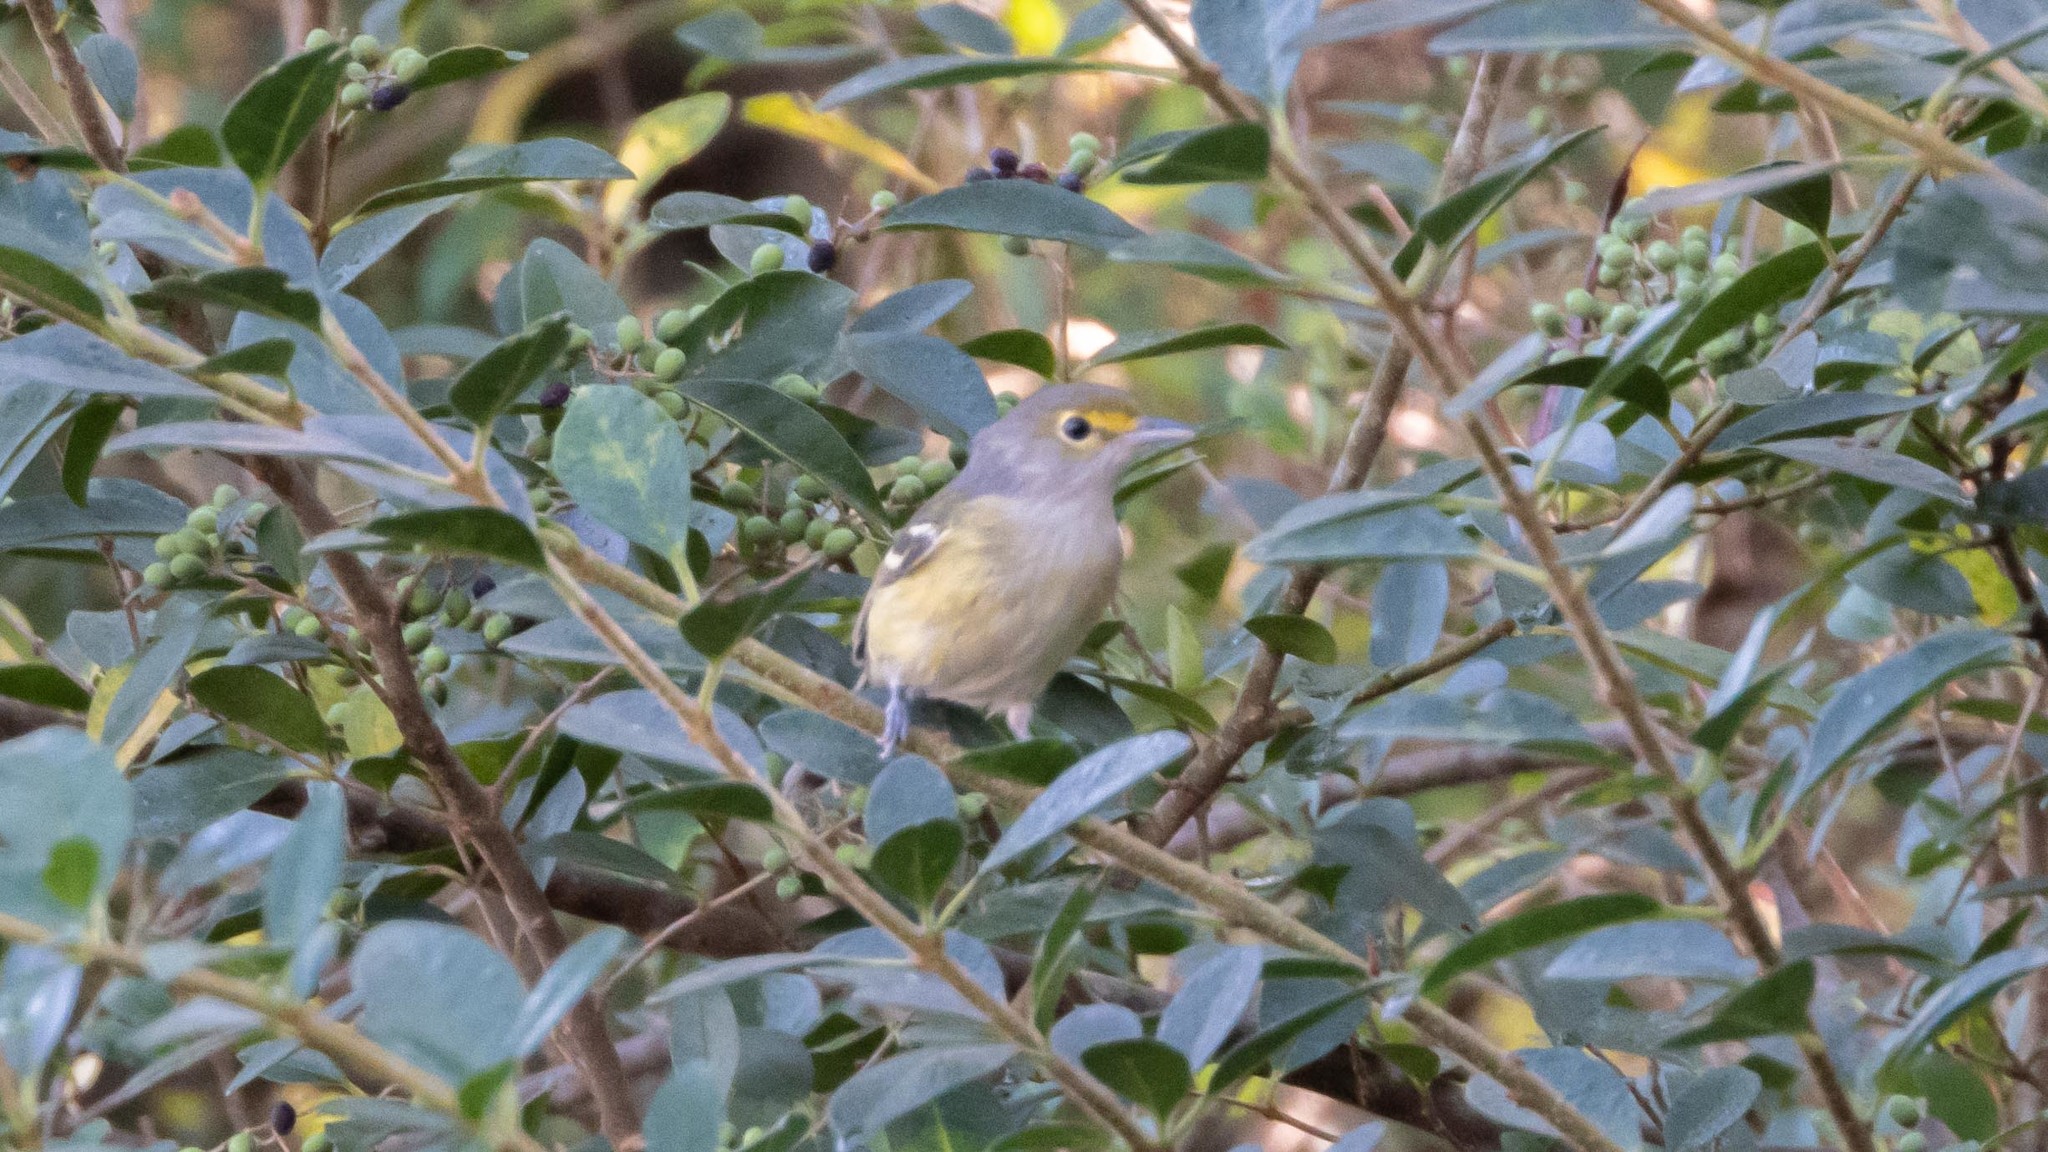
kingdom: Animalia
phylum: Chordata
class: Aves
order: Passeriformes
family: Vireonidae
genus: Vireo
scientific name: Vireo griseus
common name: White-eyed vireo
